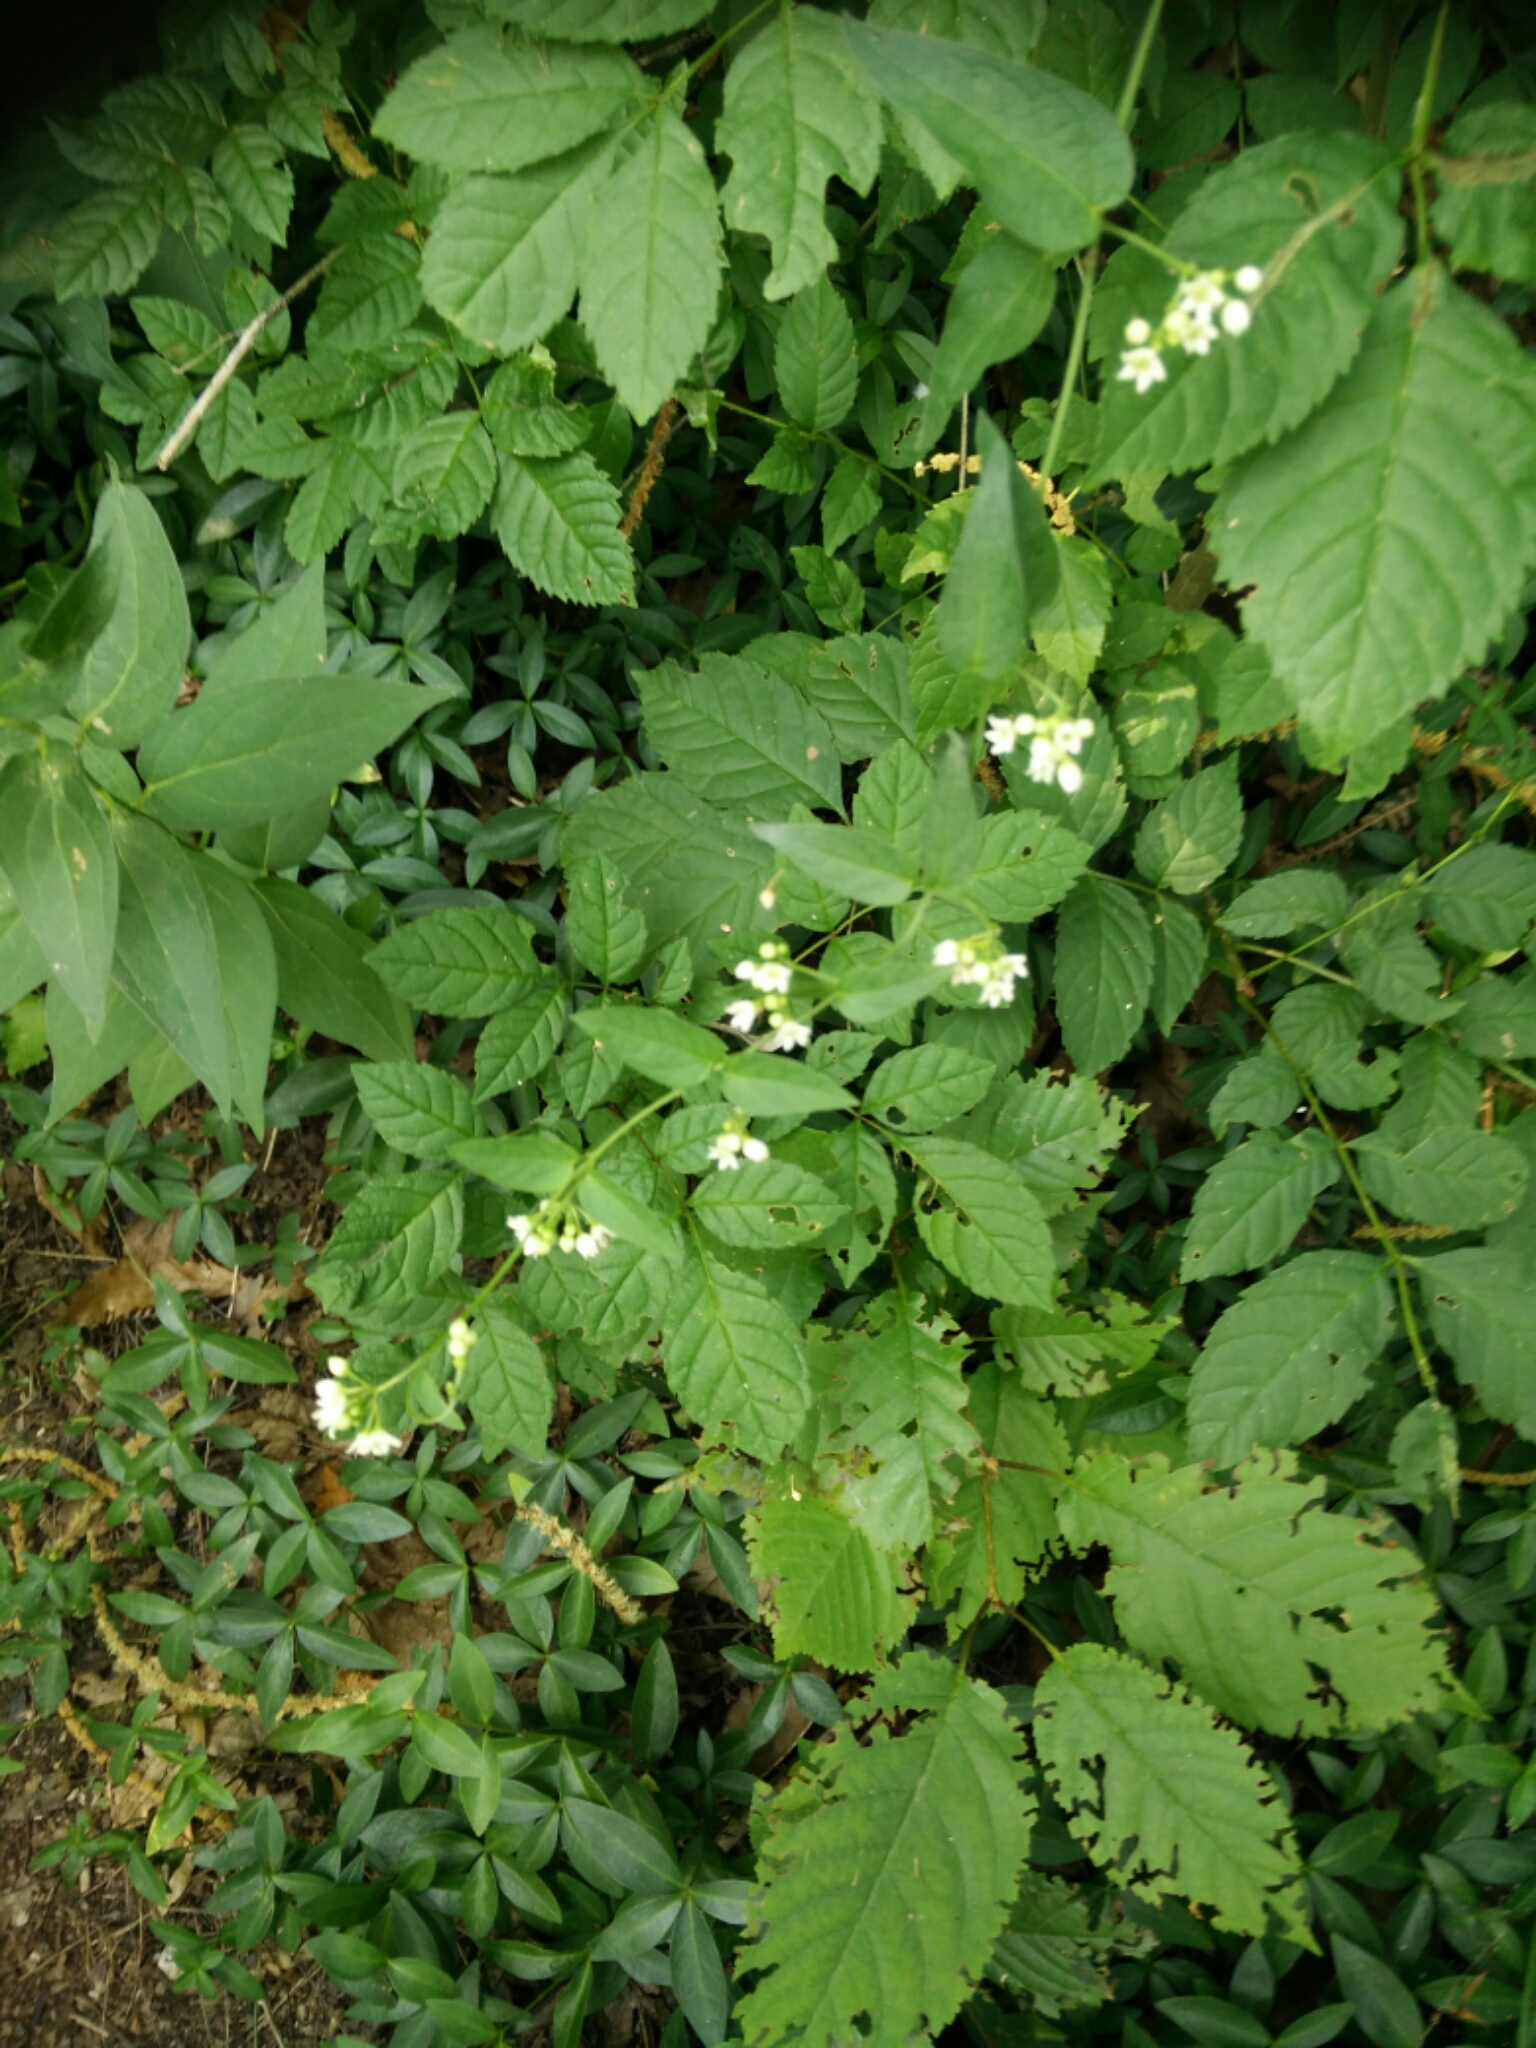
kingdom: Plantae
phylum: Tracheophyta
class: Magnoliopsida
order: Gentianales
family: Apocynaceae
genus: Vincetoxicum
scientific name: Vincetoxicum hirundinaria
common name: White swallowwort
